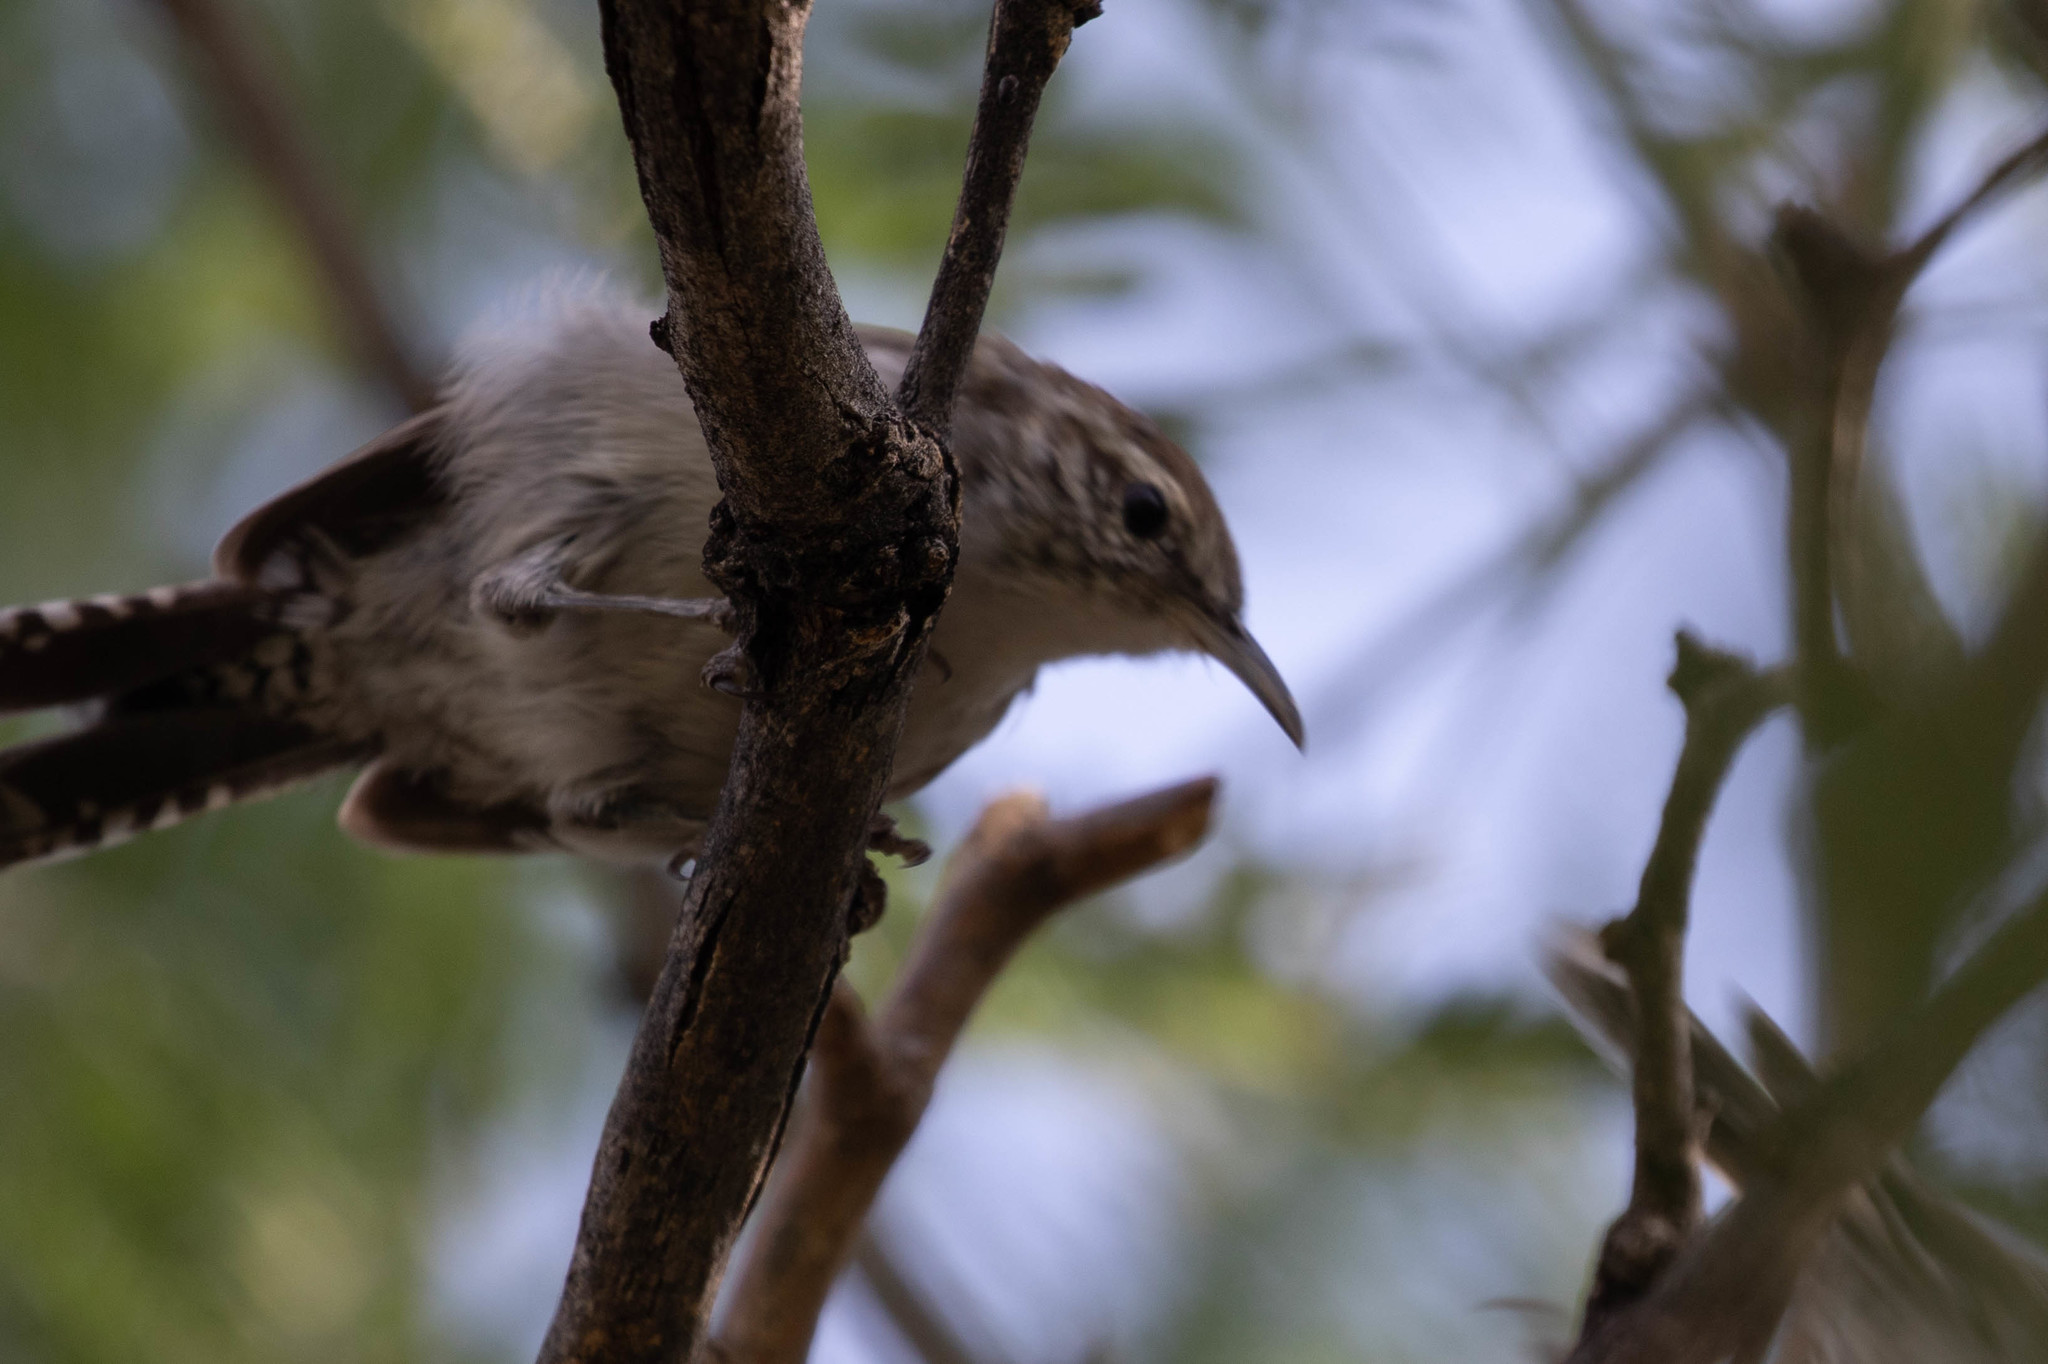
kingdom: Animalia
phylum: Chordata
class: Aves
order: Passeriformes
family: Troglodytidae
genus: Thryomanes
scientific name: Thryomanes bewickii
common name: Bewick's wren
